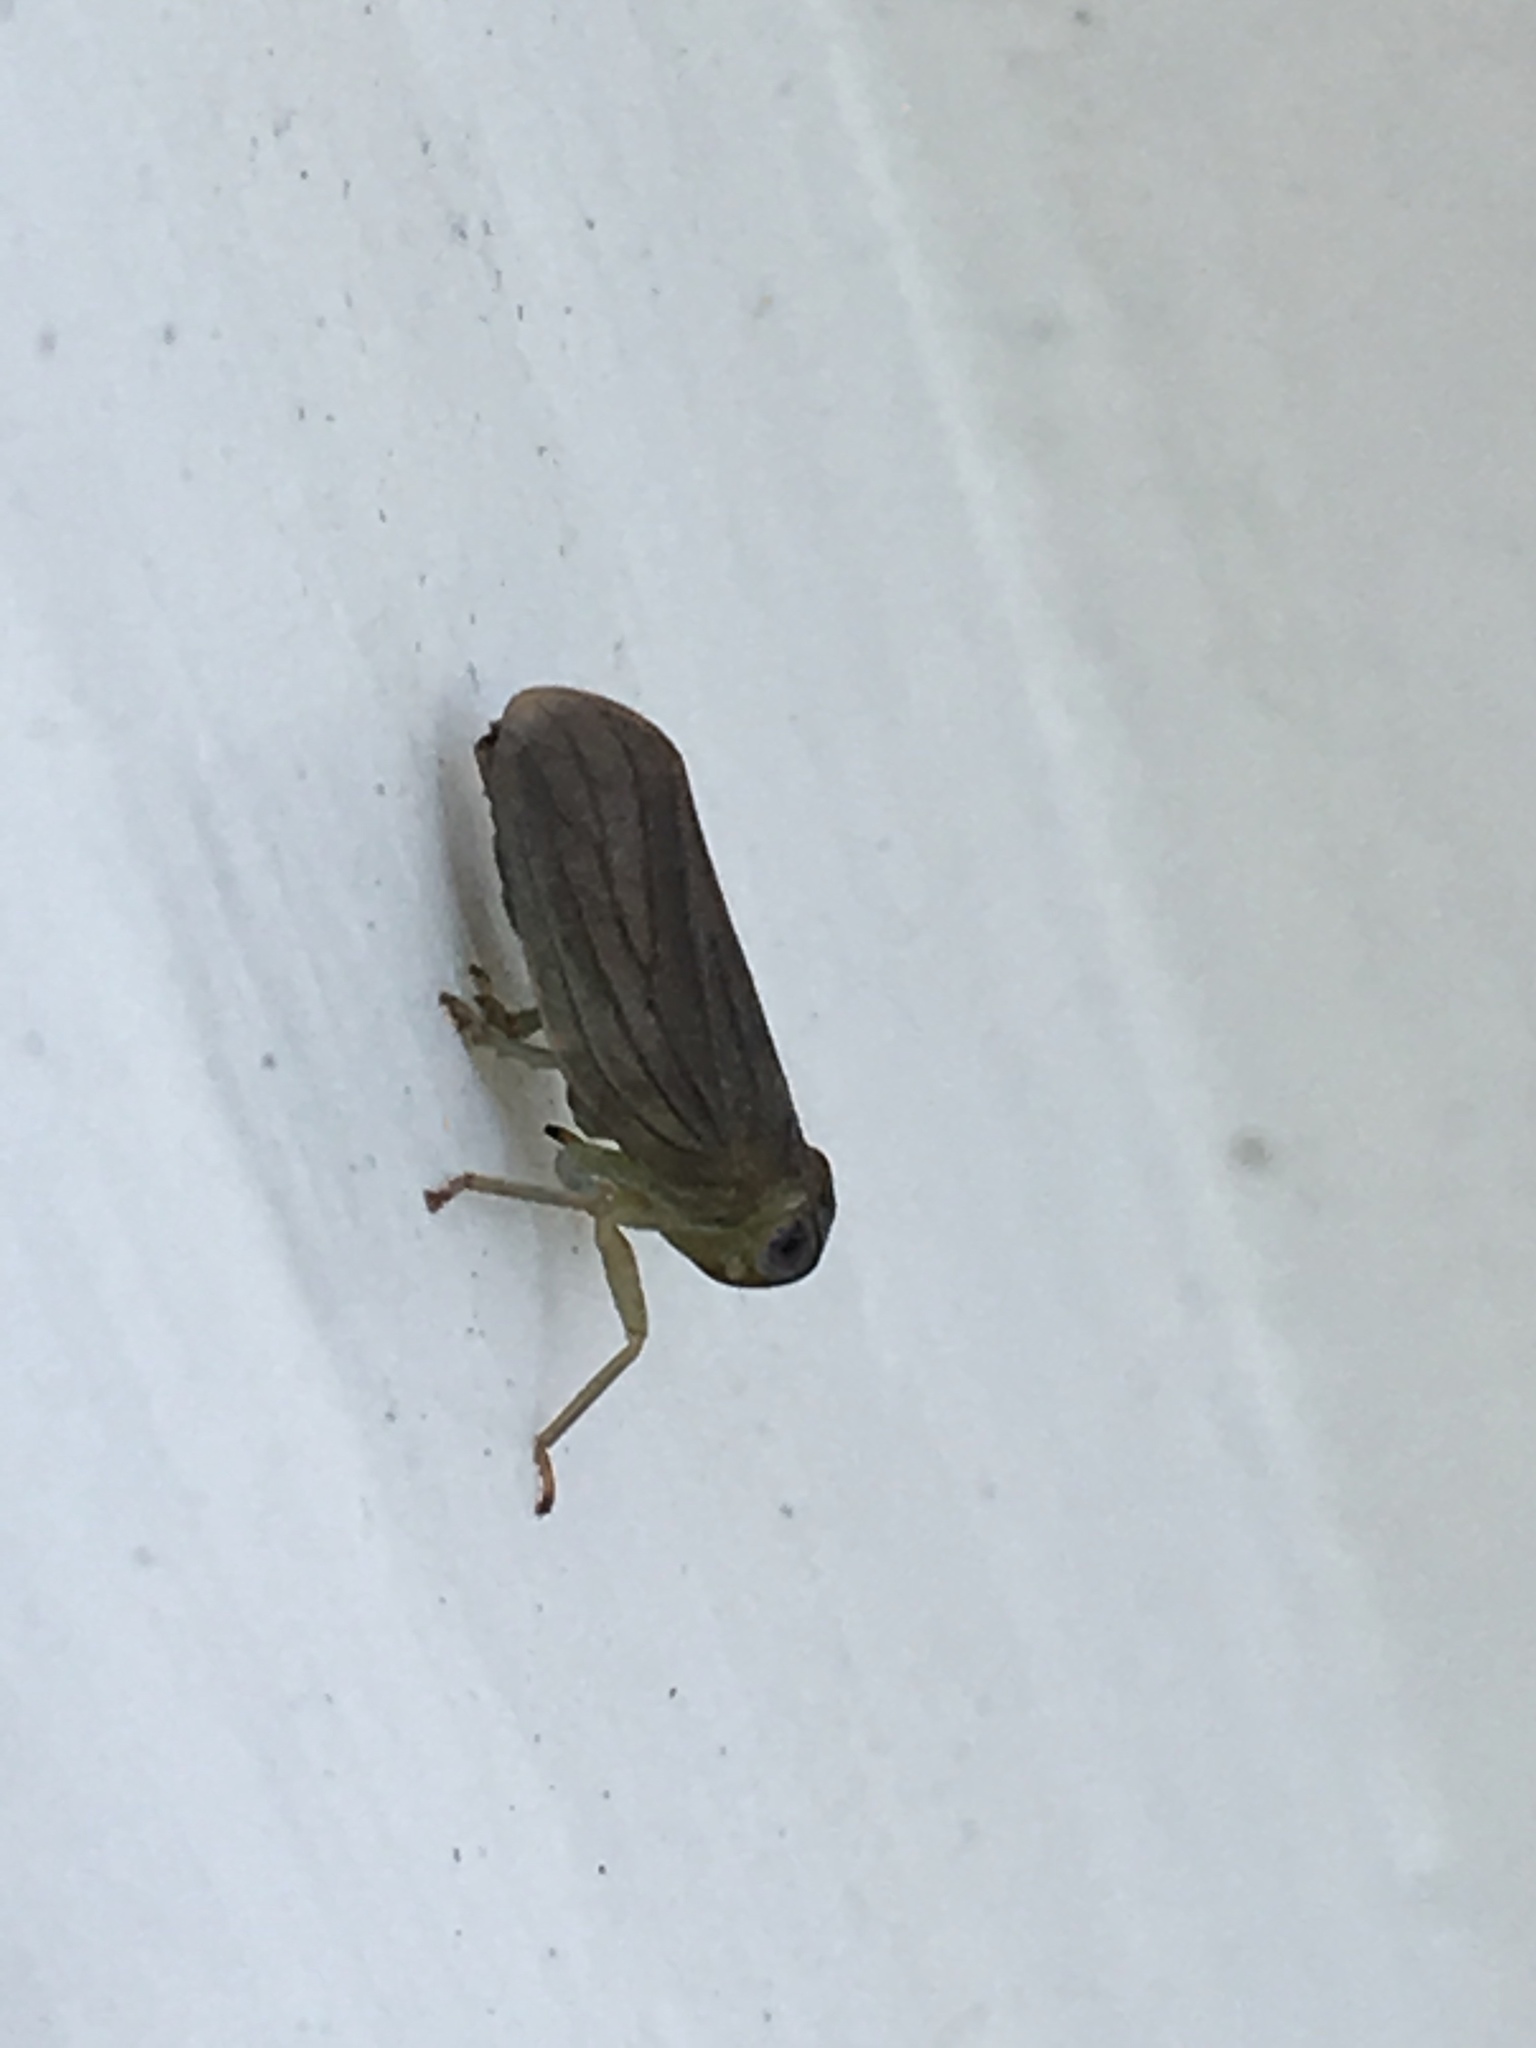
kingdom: Animalia
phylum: Arthropoda
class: Insecta
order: Hemiptera
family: Issidae
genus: Aplos
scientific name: Aplos simplex
